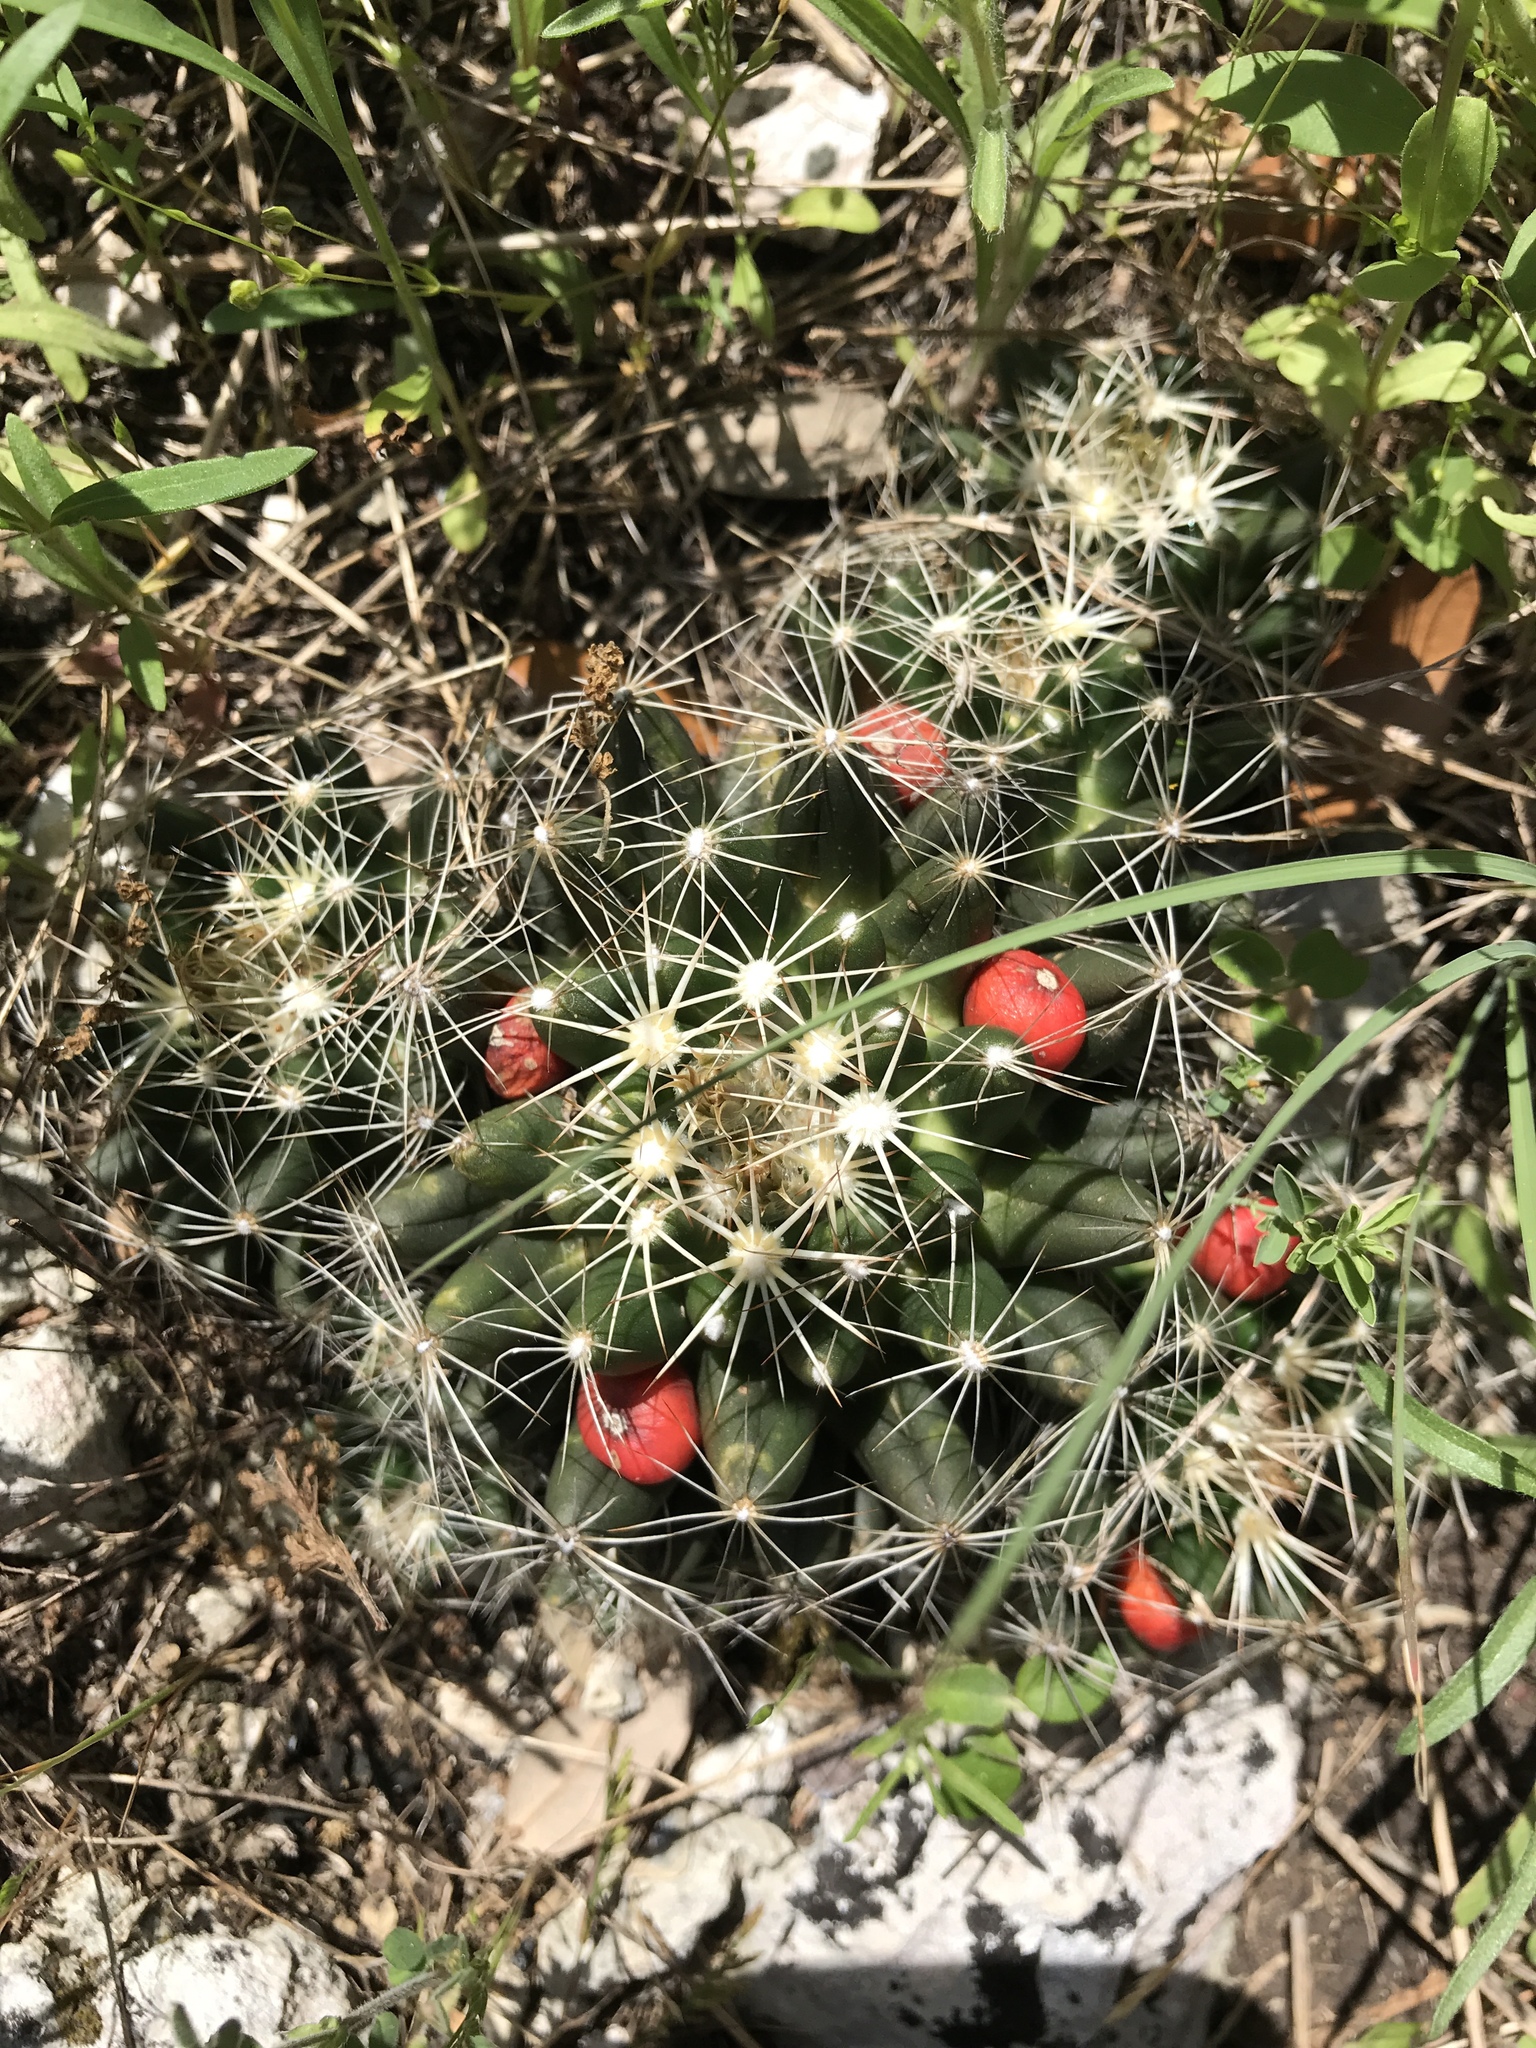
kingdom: Plantae
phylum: Tracheophyta
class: Magnoliopsida
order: Caryophyllales
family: Cactaceae
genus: Pelecyphora
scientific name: Pelecyphora missouriensis
